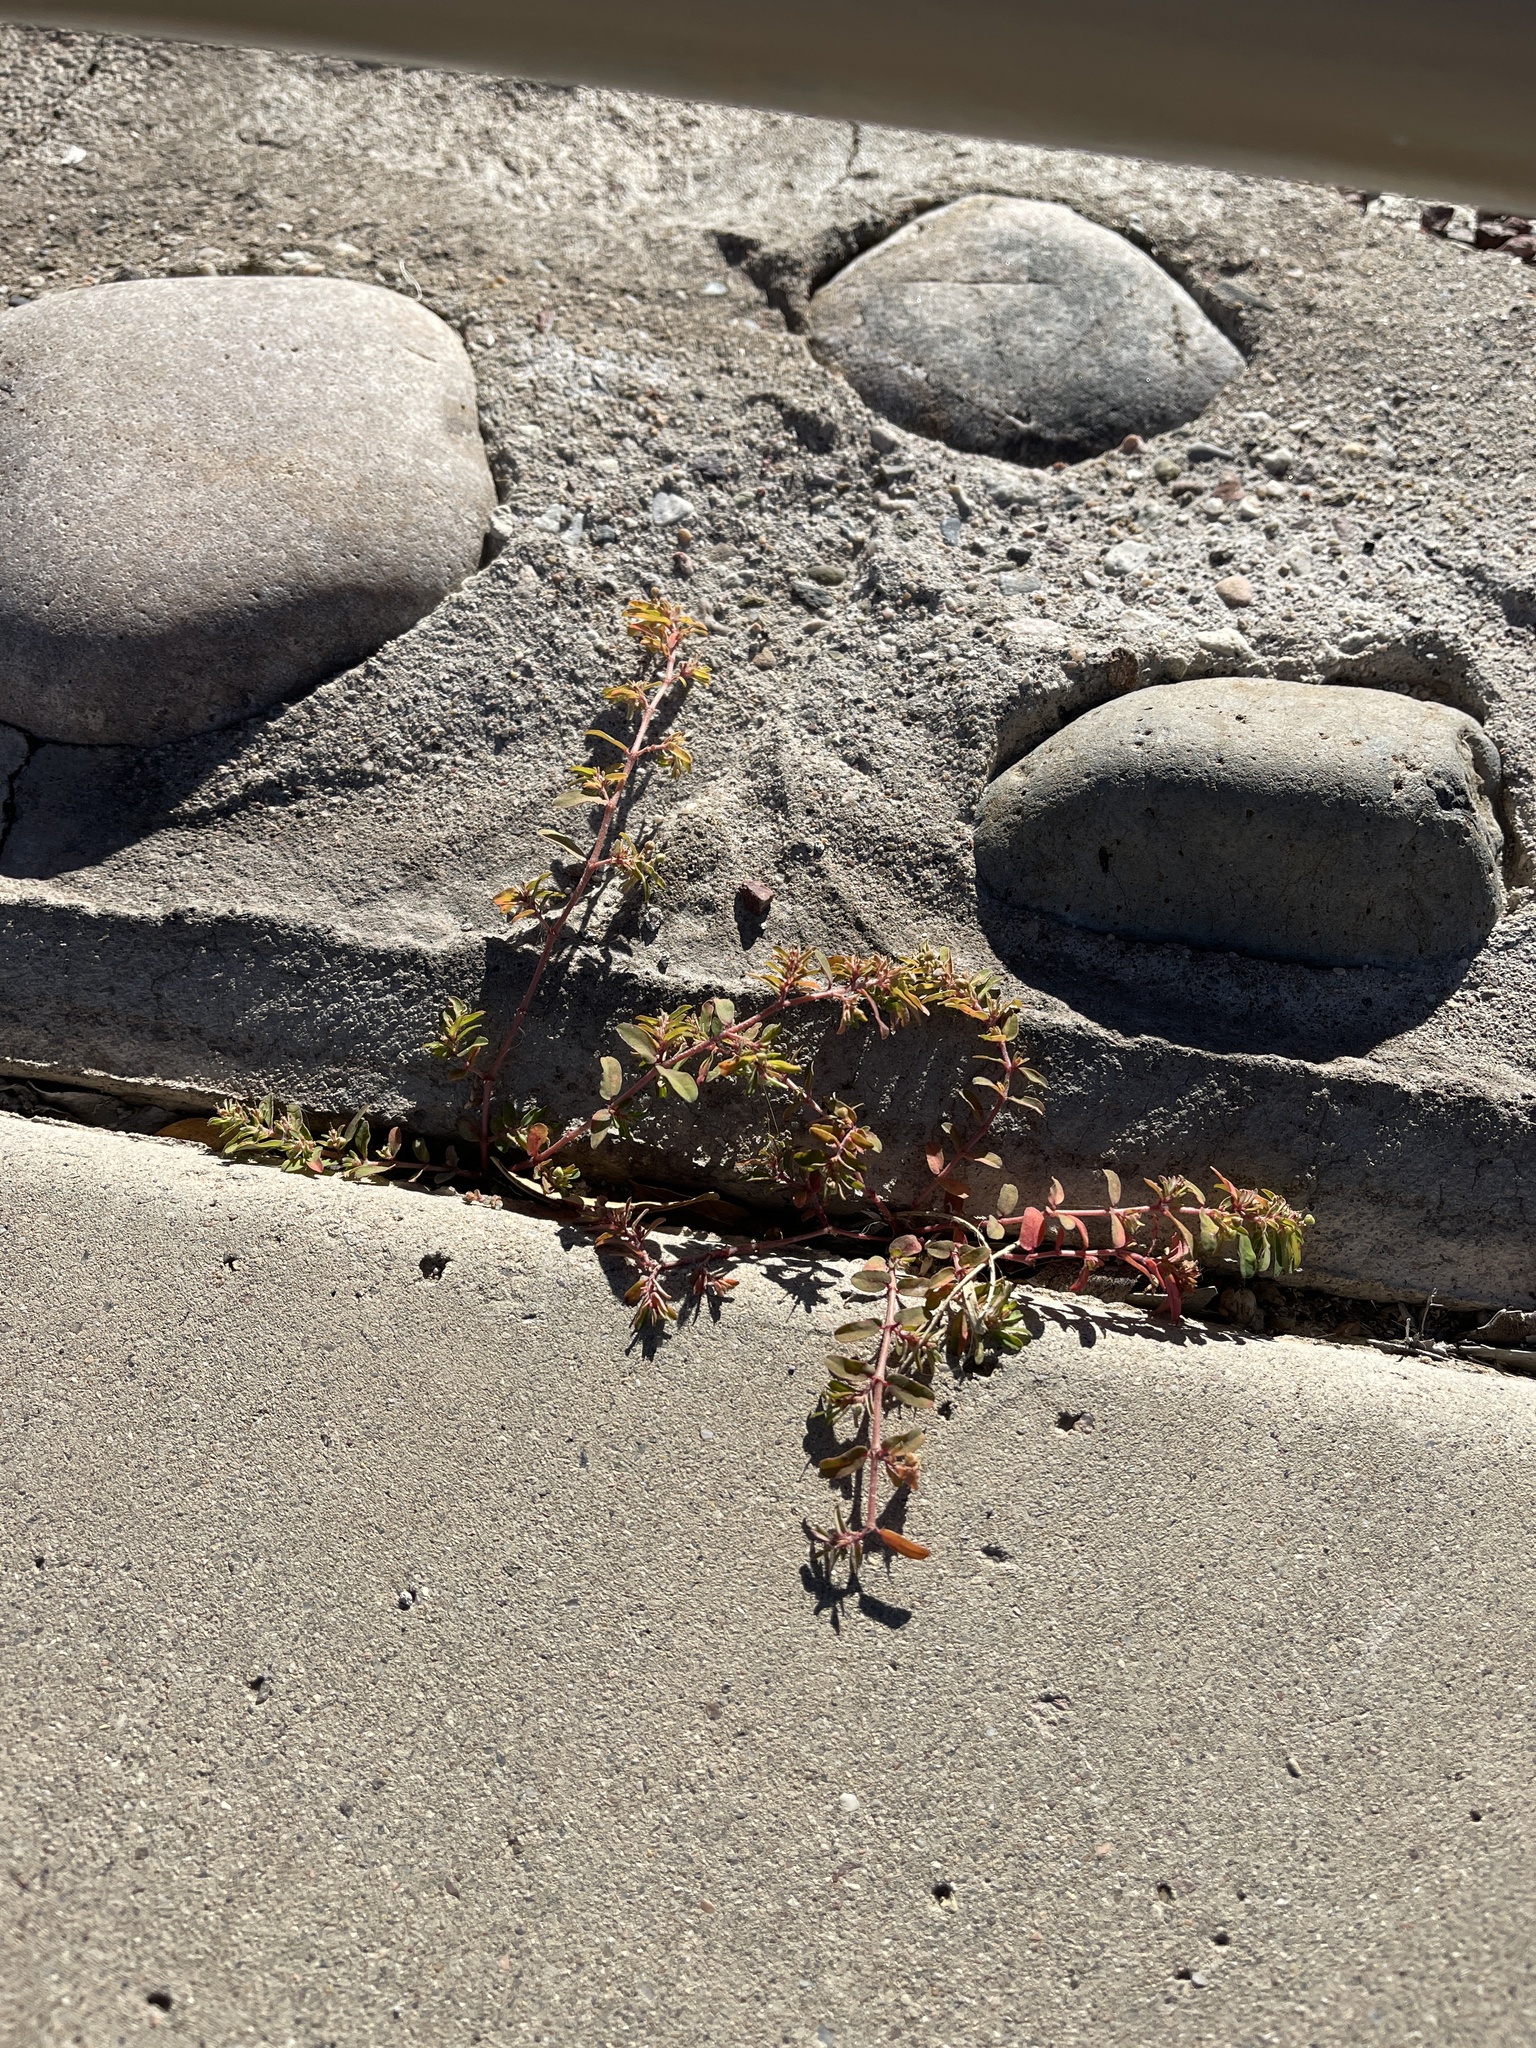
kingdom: Plantae
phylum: Tracheophyta
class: Magnoliopsida
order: Malpighiales
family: Euphorbiaceae
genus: Euphorbia
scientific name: Euphorbia maculata
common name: Spotted spurge
